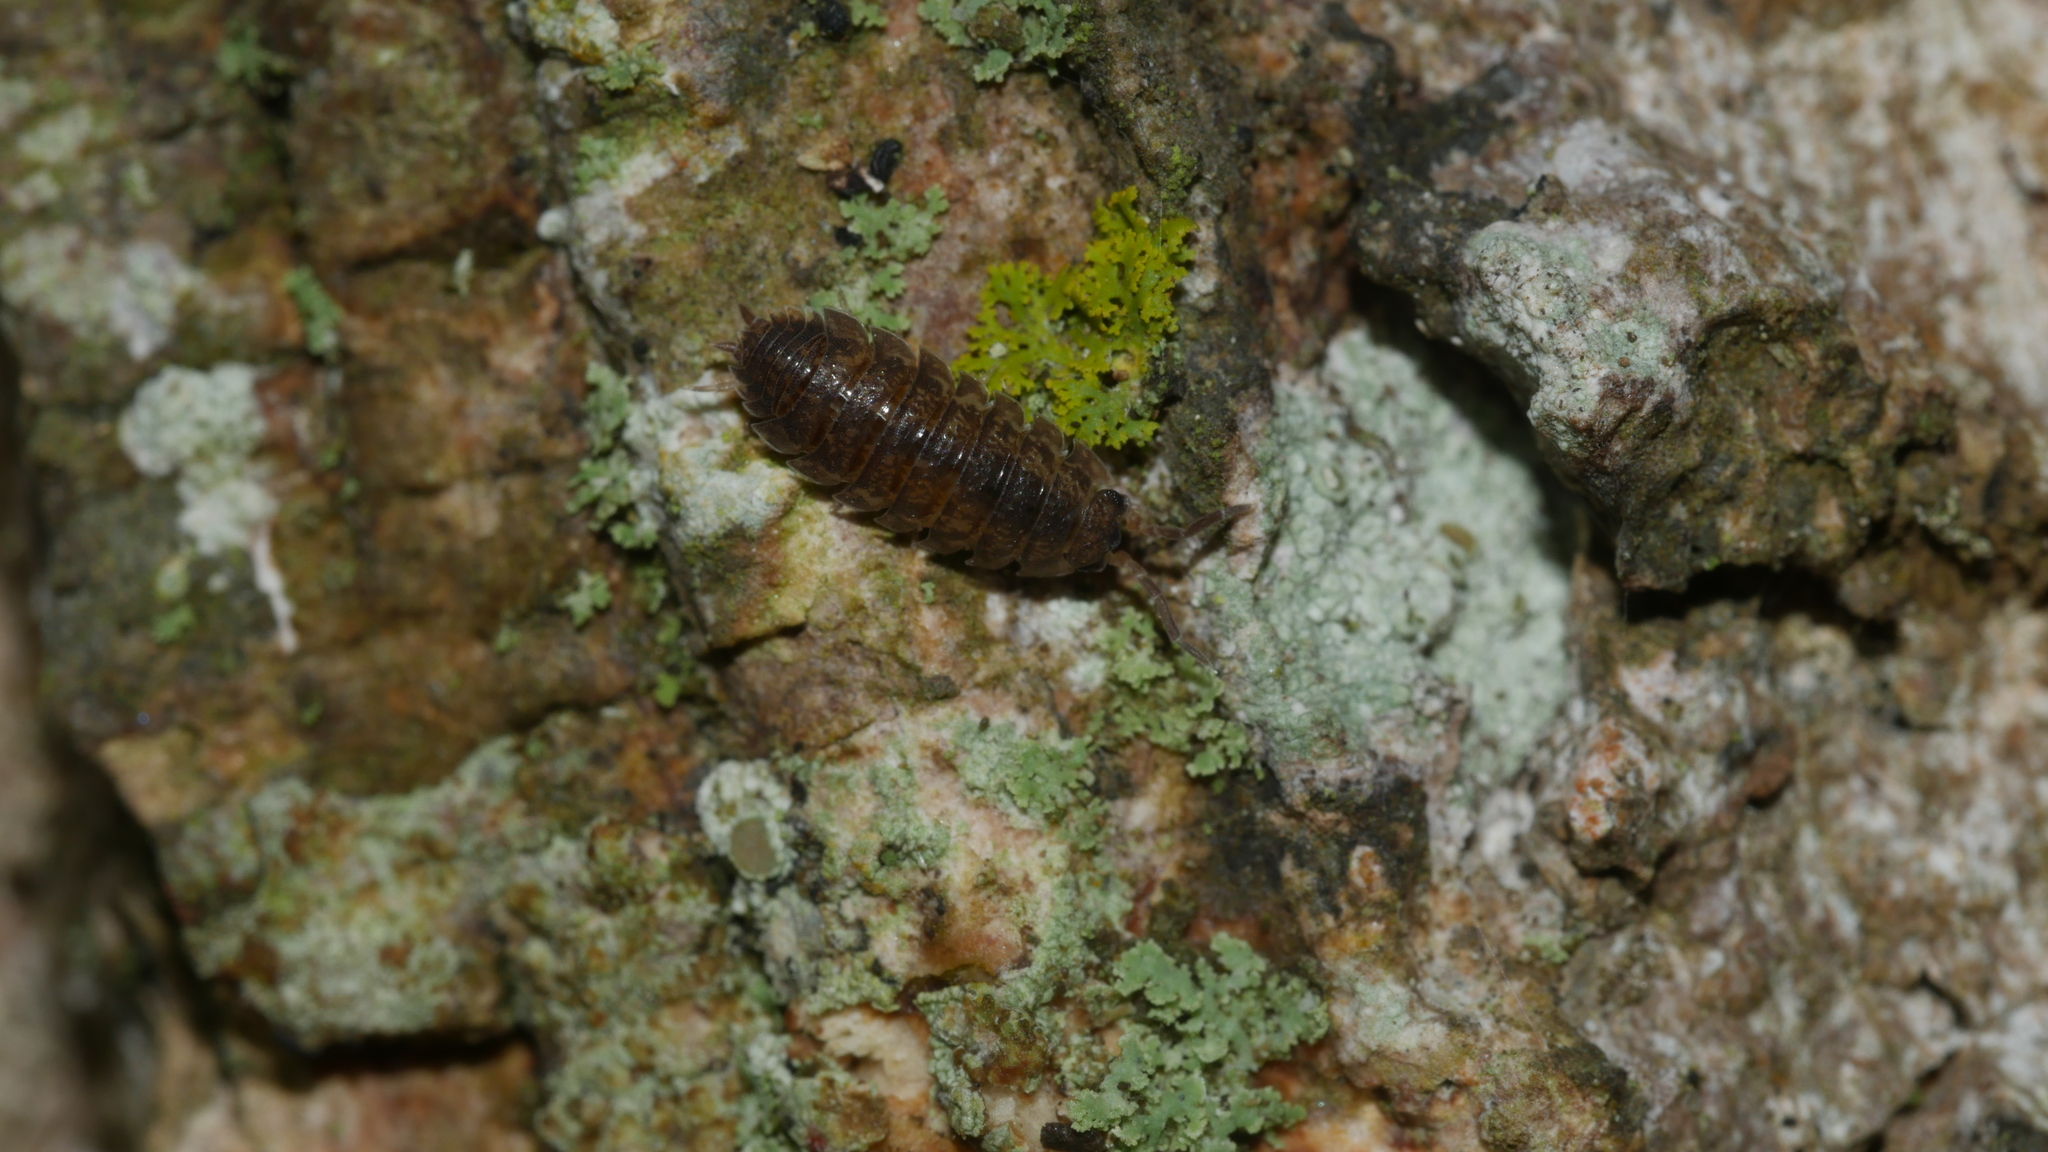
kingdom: Animalia
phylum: Arthropoda
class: Malacostraca
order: Isopoda
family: Porcellionidae
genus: Porcellio
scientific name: Porcellio scaber
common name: Common rough woodlouse
